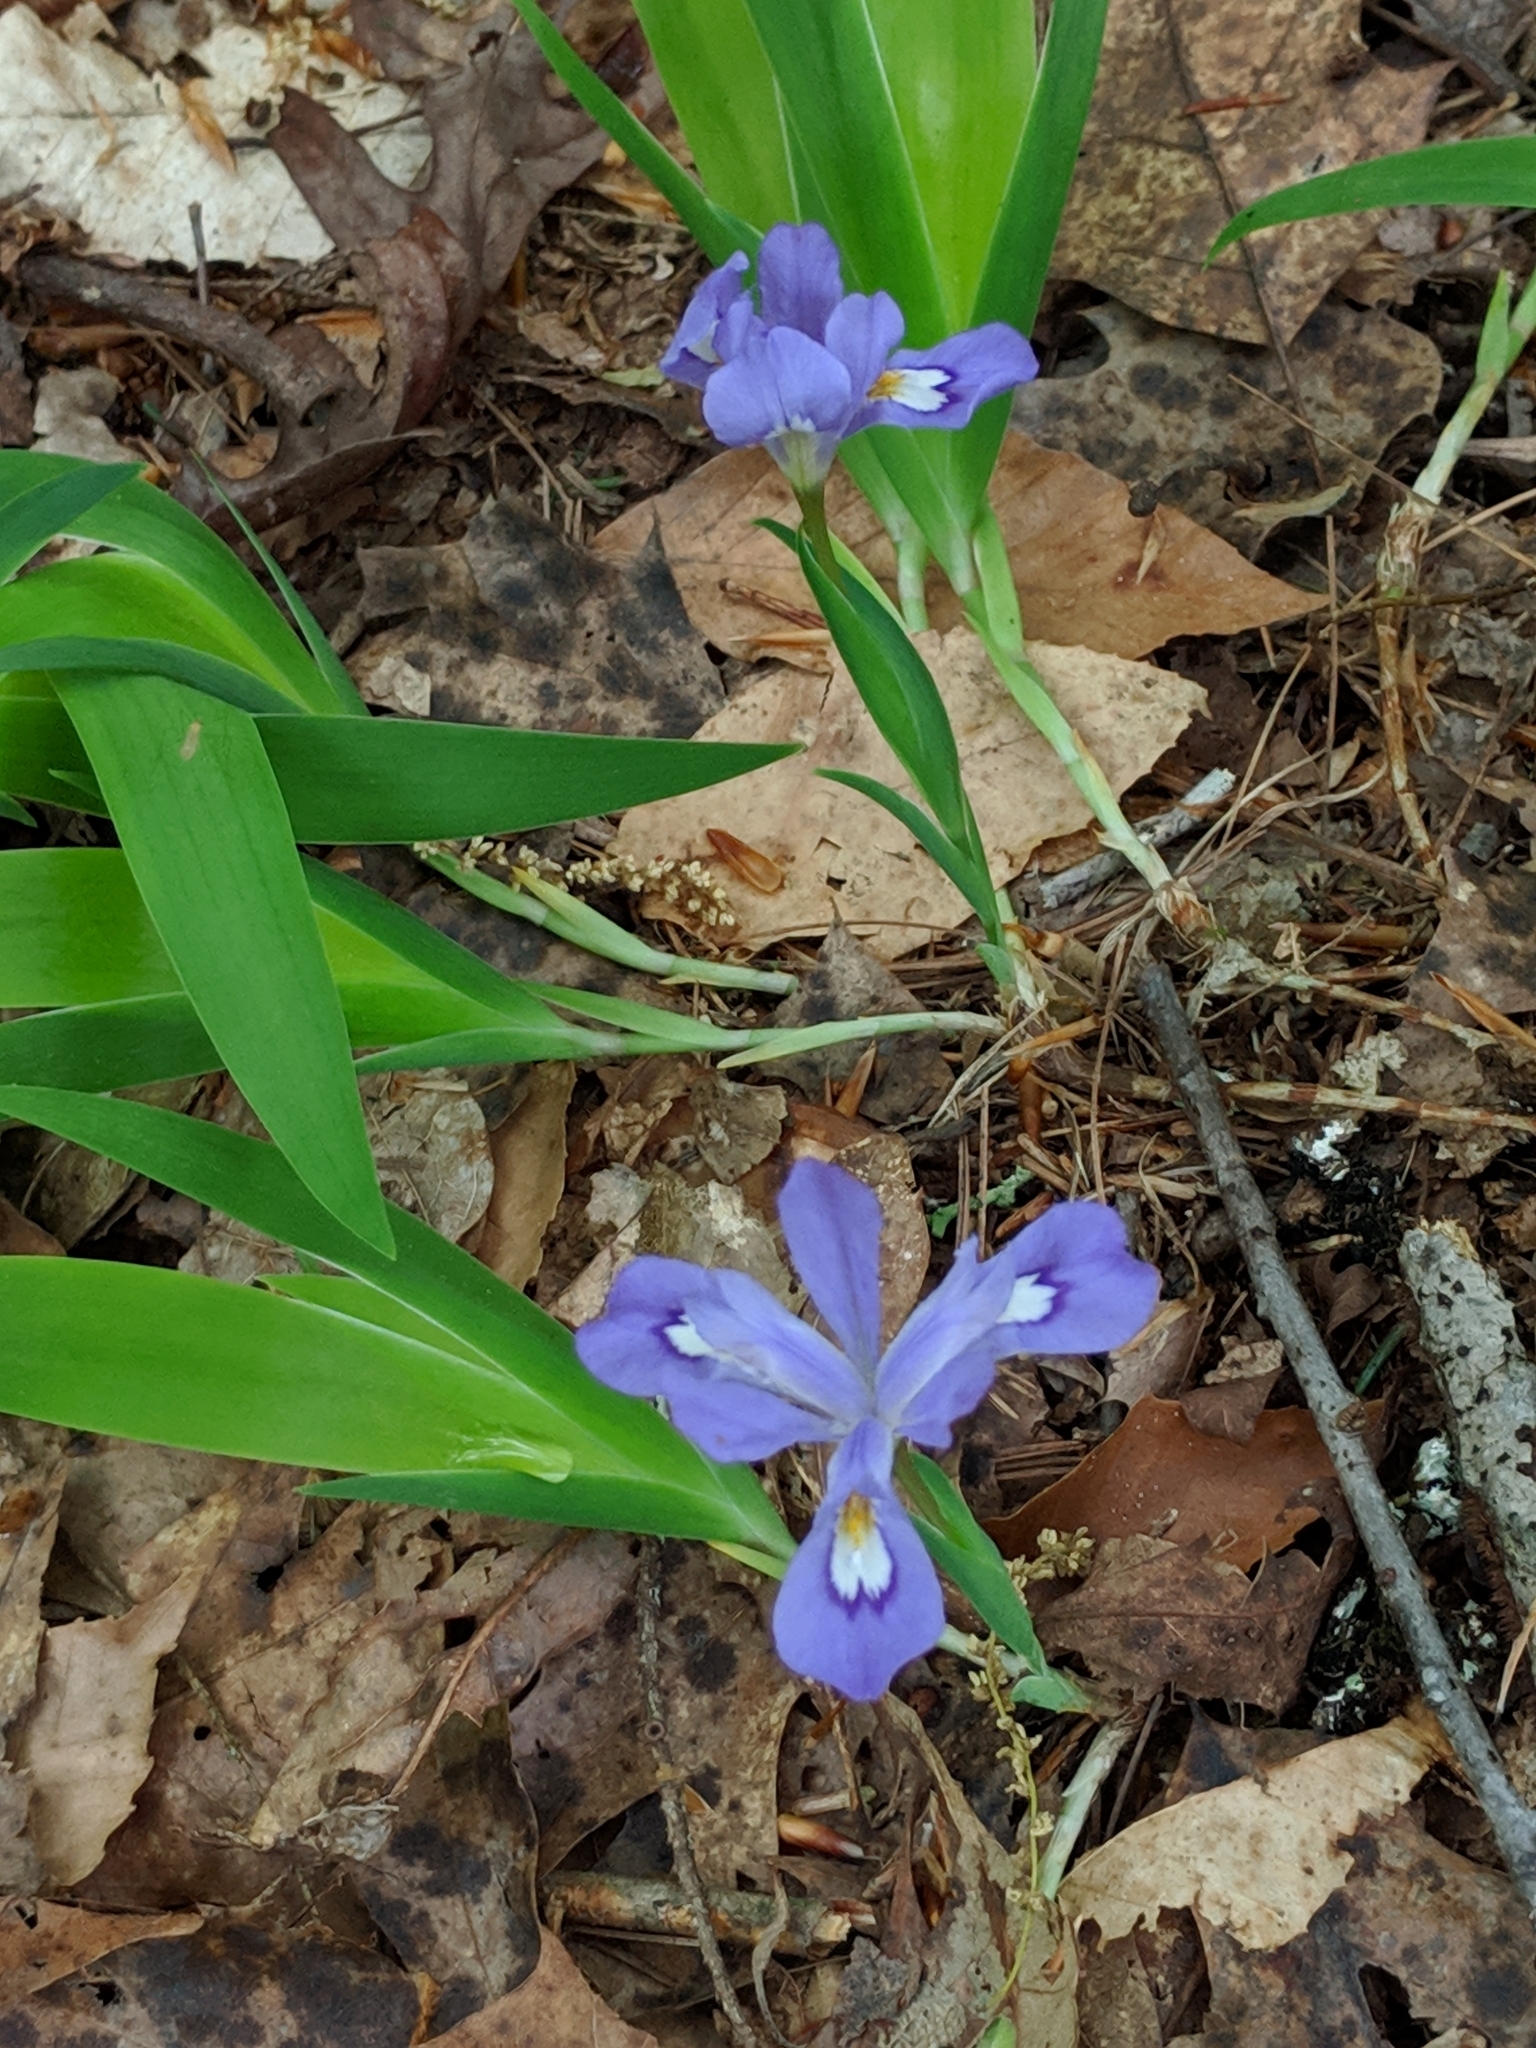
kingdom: Plantae
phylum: Tracheophyta
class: Liliopsida
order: Asparagales
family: Iridaceae
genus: Iris
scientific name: Iris cristata
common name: Crested iris
